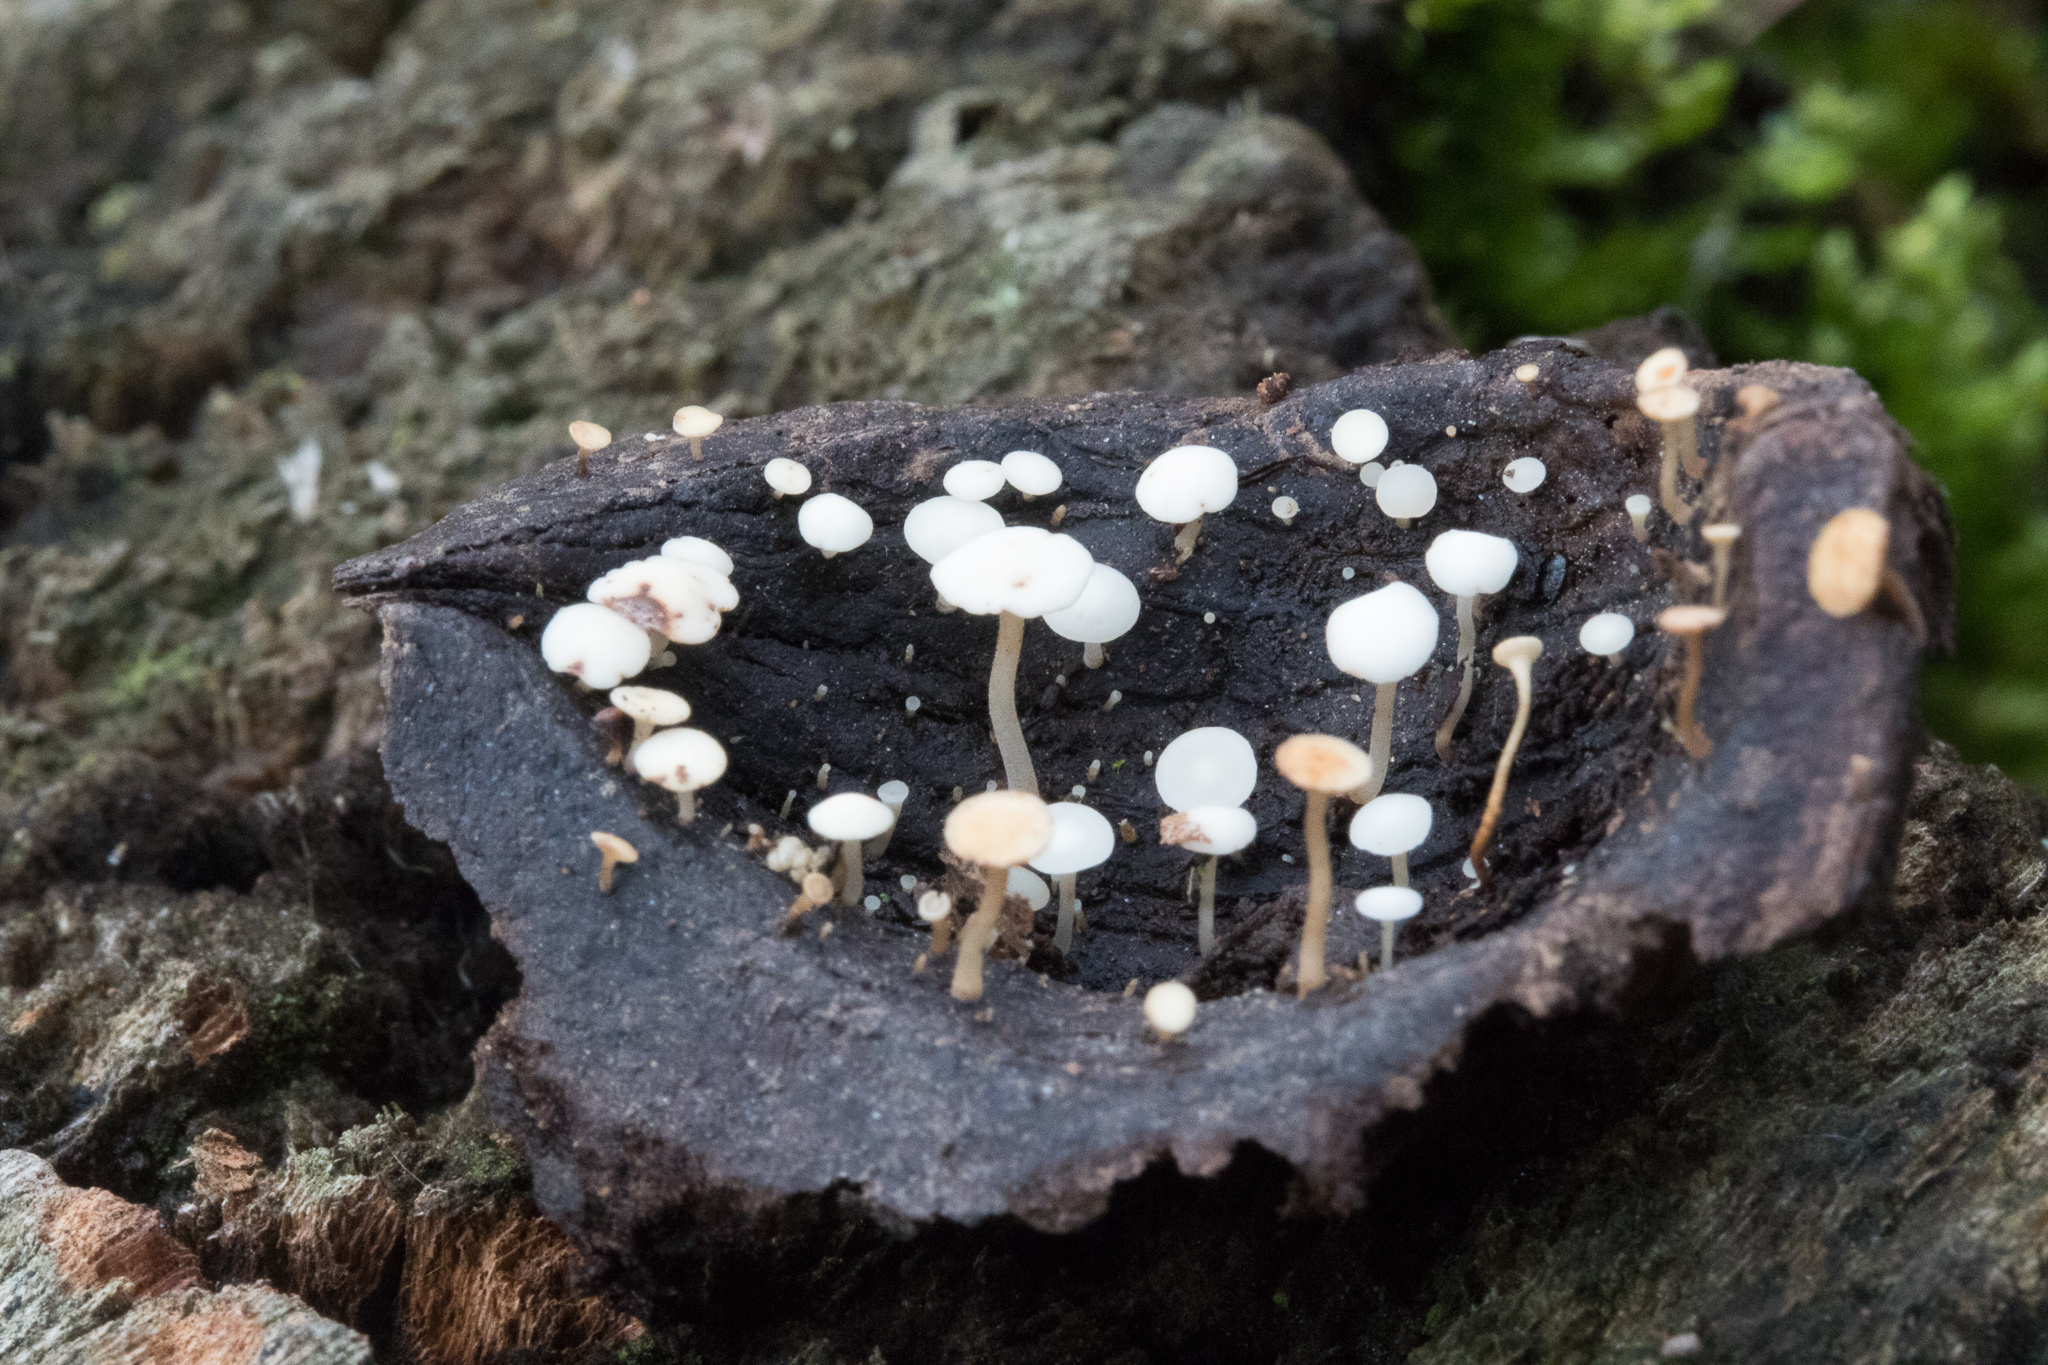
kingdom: Fungi
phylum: Ascomycota
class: Leotiomycetes
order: Helotiales
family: Helotiaceae
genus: Hymenoscyphus
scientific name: Hymenoscyphus fructigenus
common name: Nut disco
